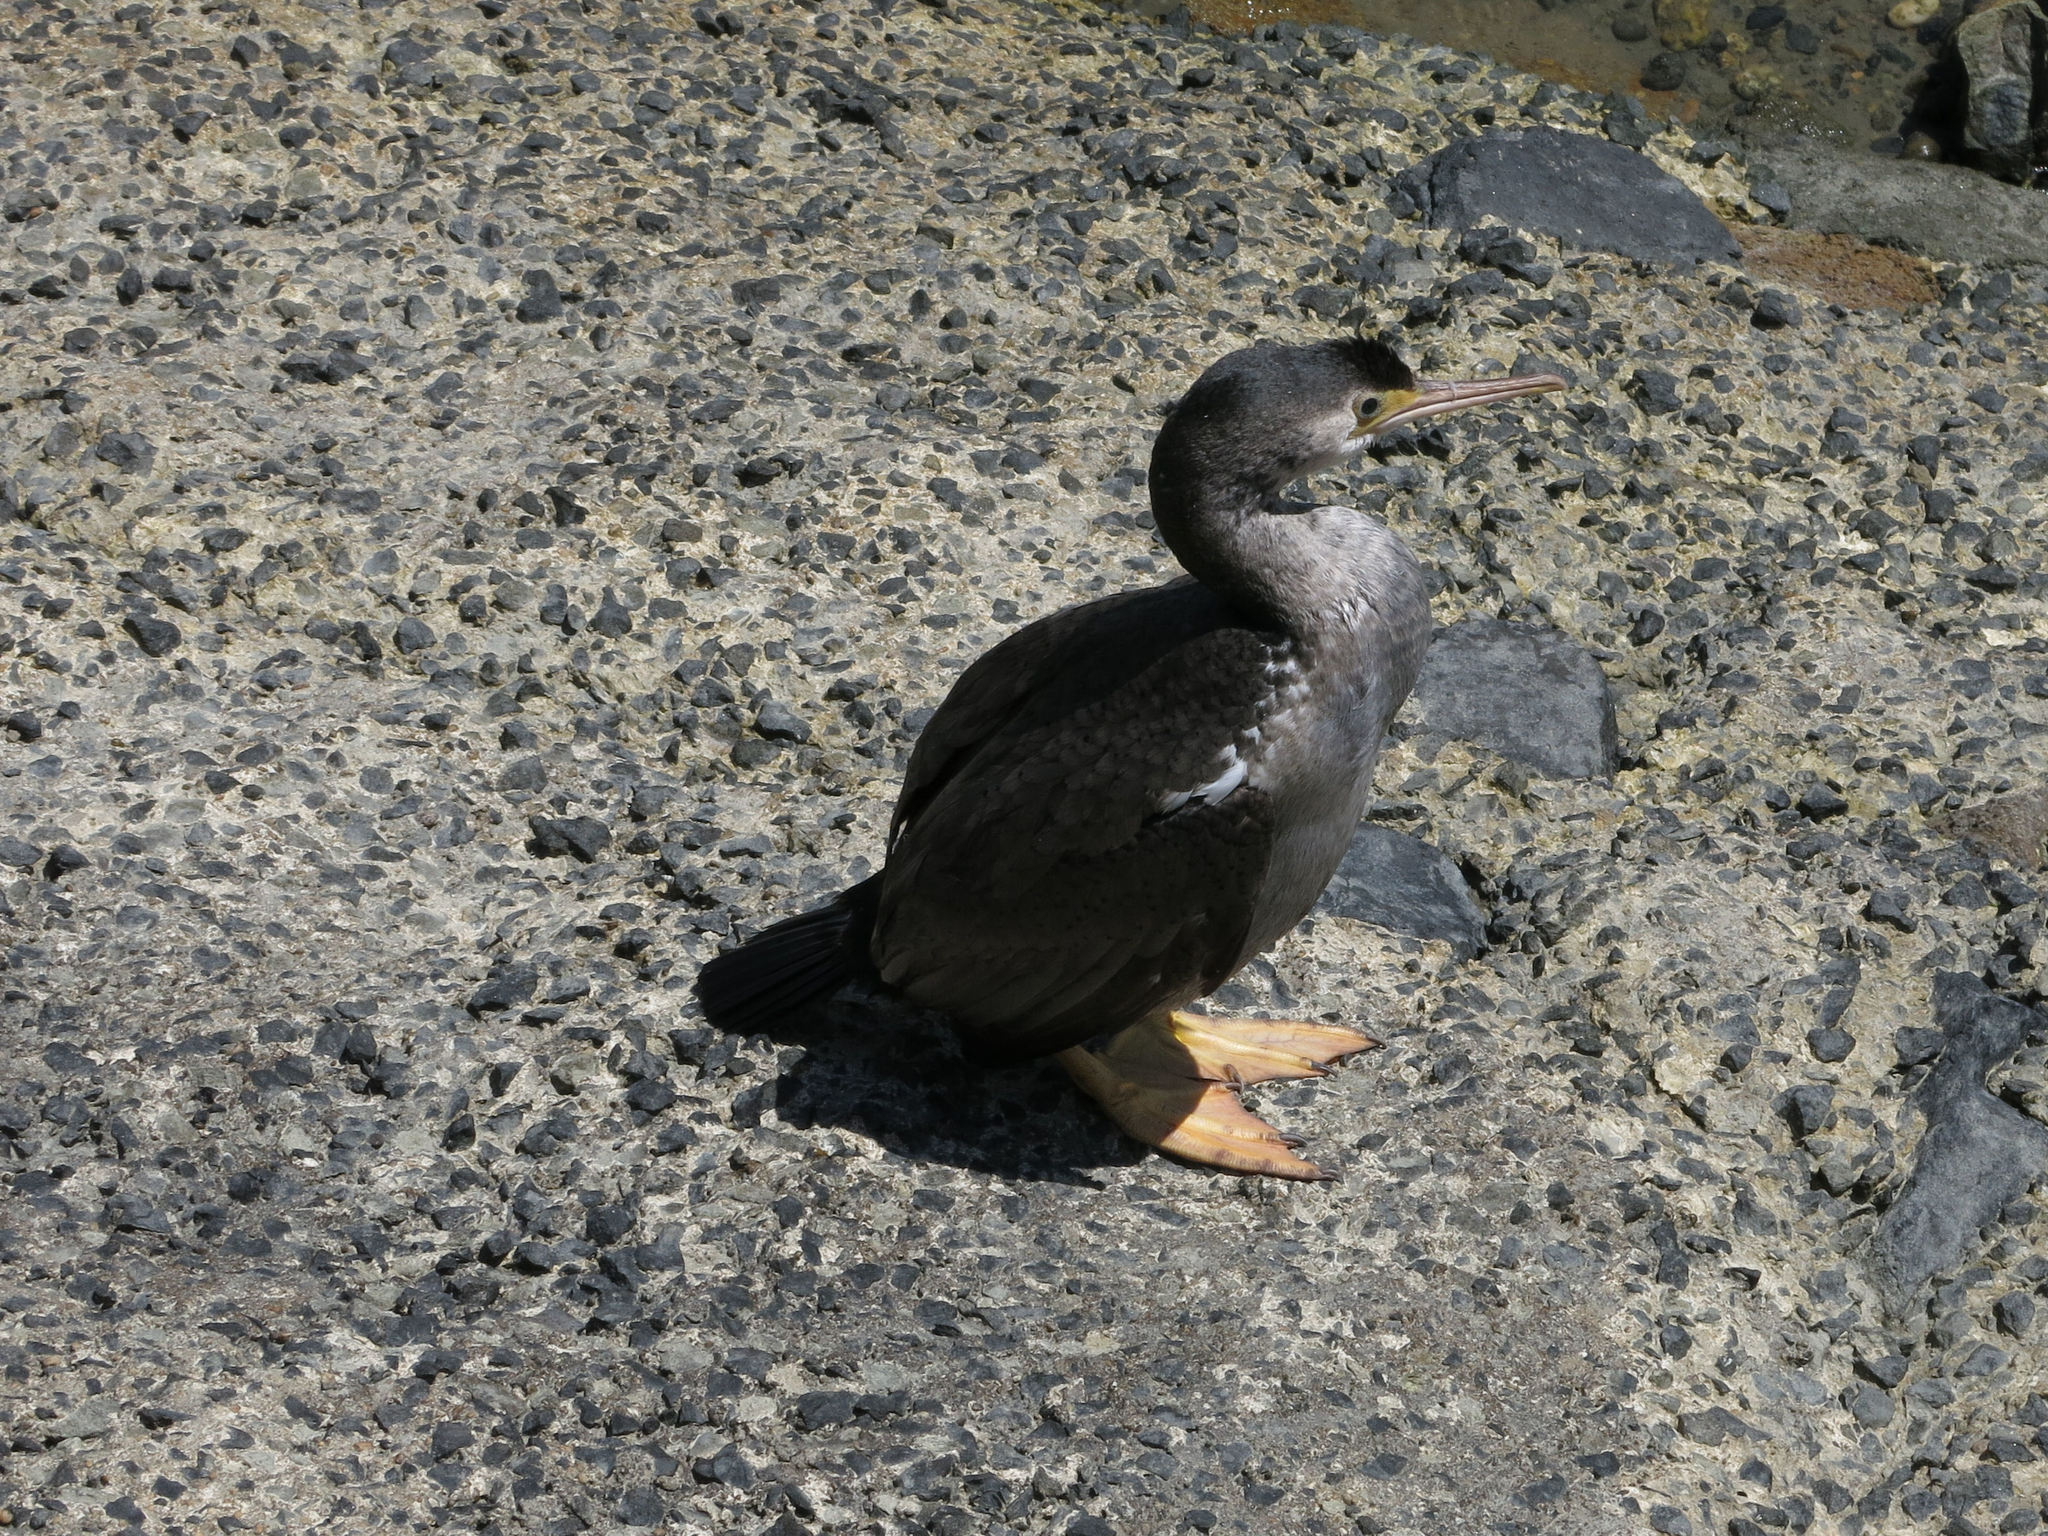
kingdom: Animalia
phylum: Chordata
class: Aves
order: Suliformes
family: Phalacrocoracidae
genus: Phalacrocorax
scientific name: Phalacrocorax punctatus
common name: Spotted shag
